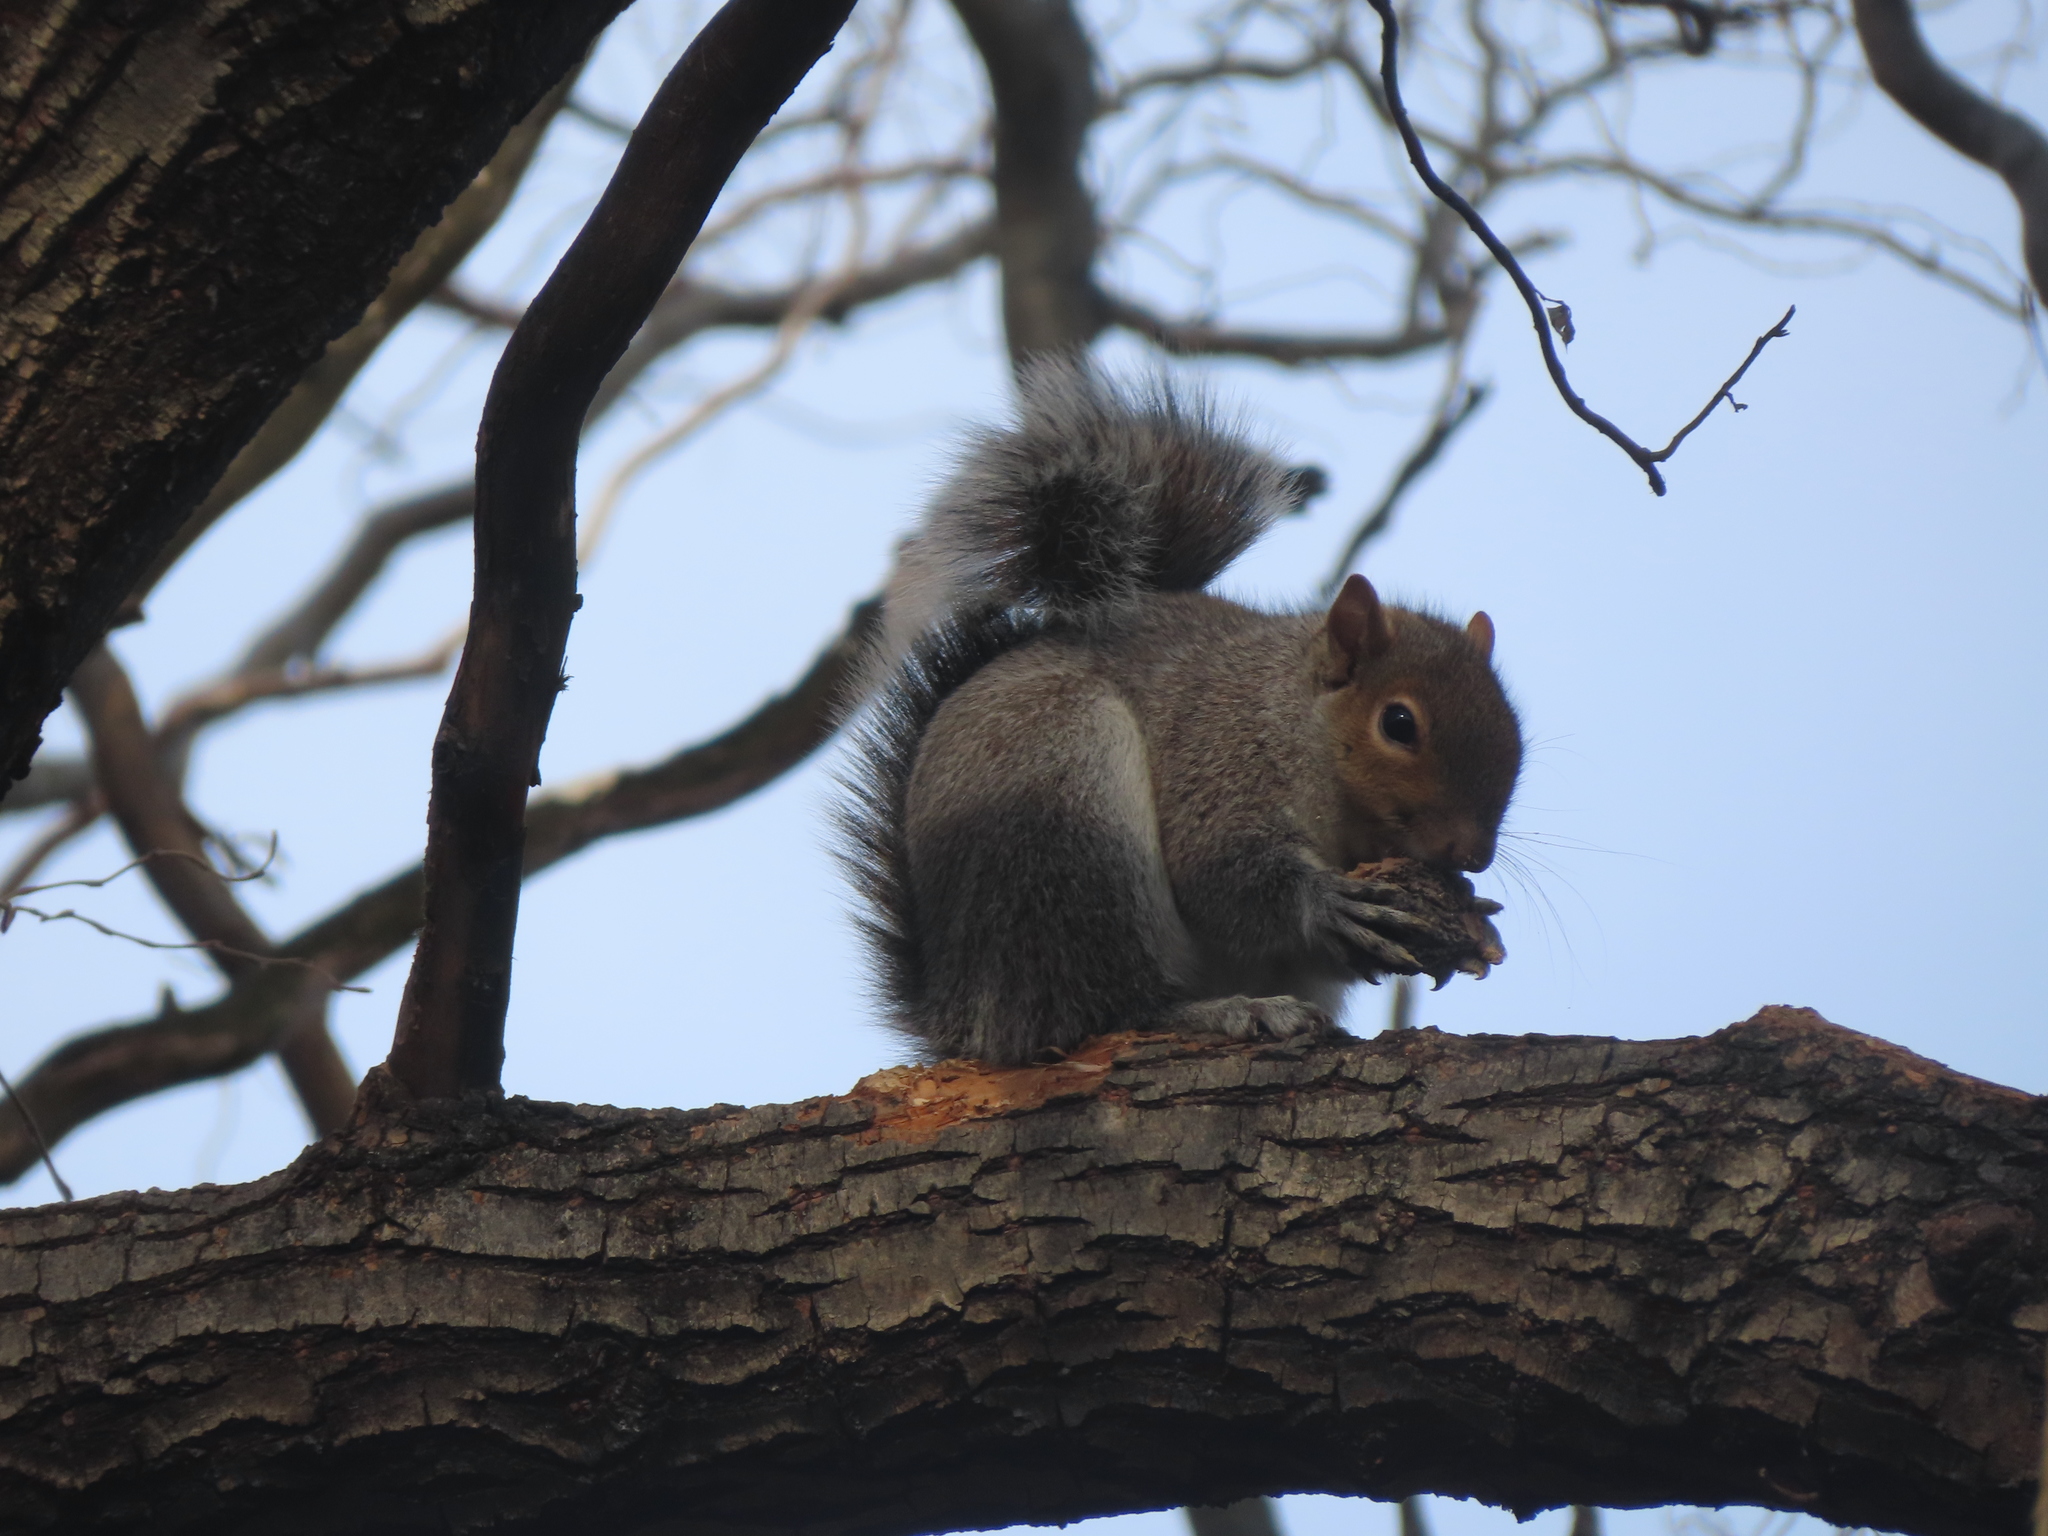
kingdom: Animalia
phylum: Chordata
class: Mammalia
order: Rodentia
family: Sciuridae
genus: Sciurus
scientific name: Sciurus carolinensis
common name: Eastern gray squirrel
